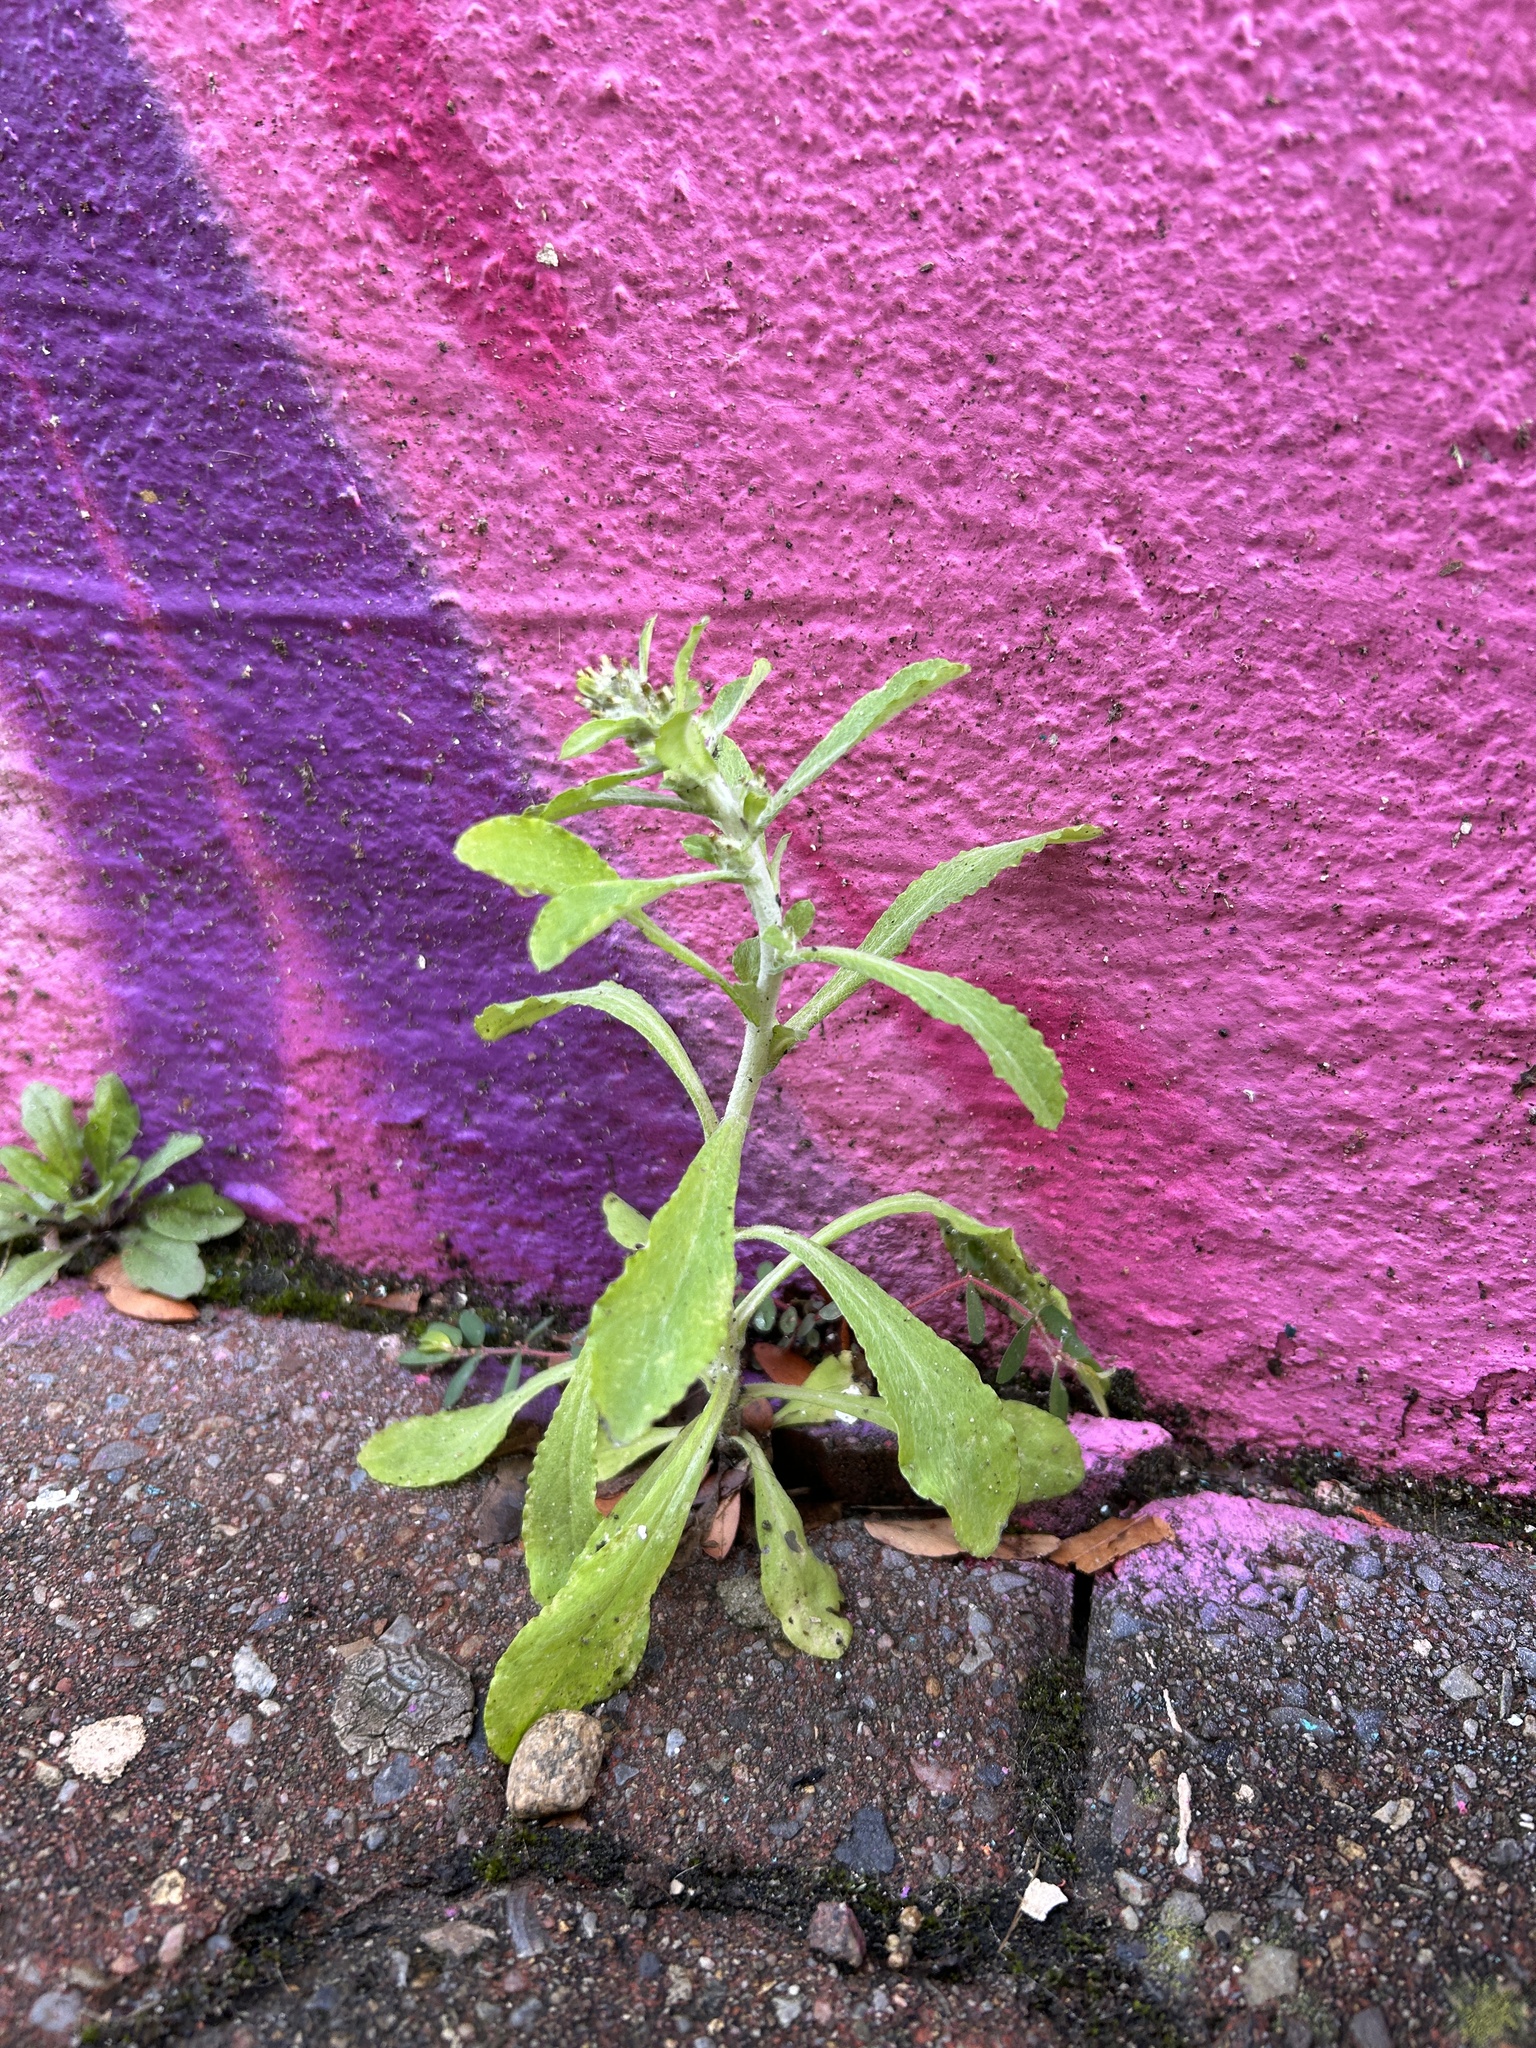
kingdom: Plantae
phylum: Tracheophyta
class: Magnoliopsida
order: Asterales
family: Asteraceae
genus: Gamochaeta
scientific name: Gamochaeta pensylvanica
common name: Pennsylvania everlasting
